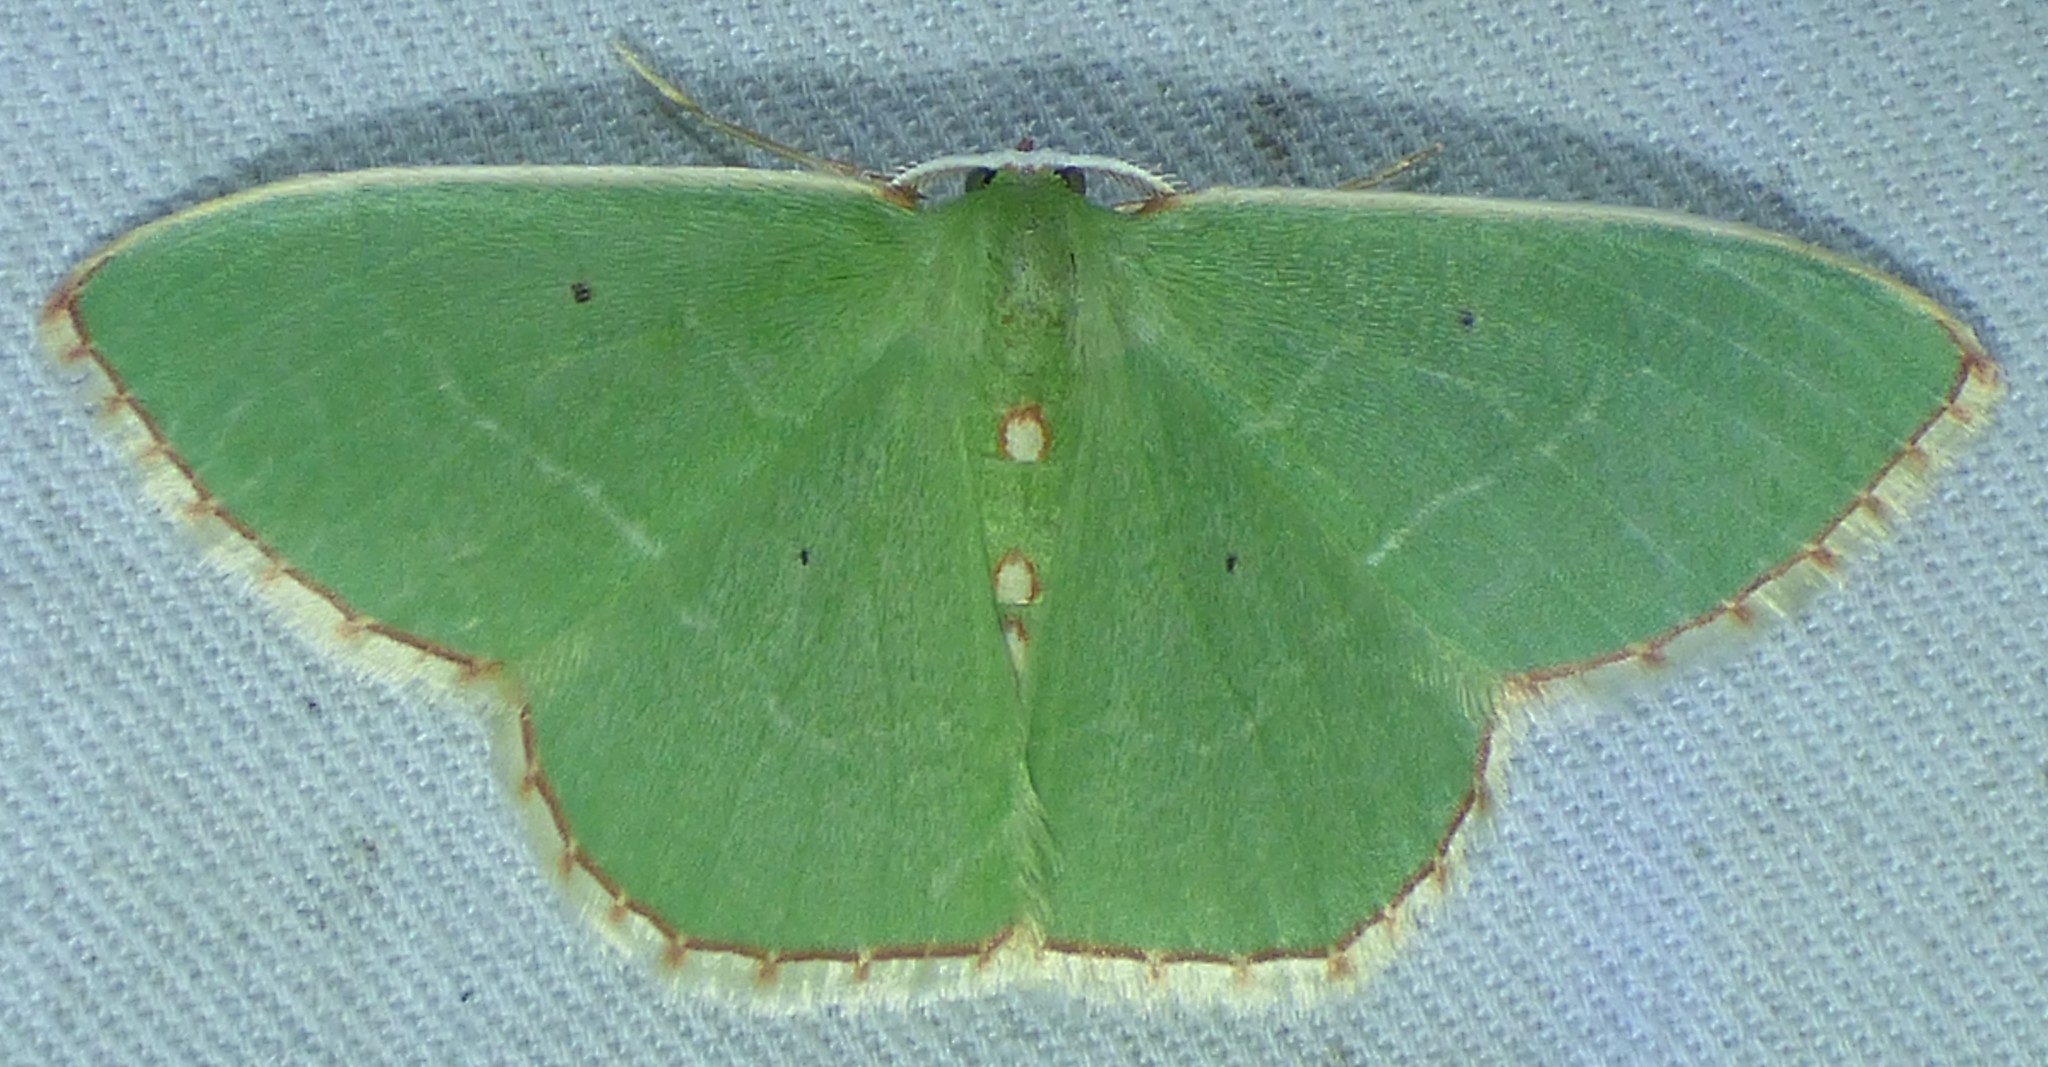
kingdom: Animalia
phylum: Arthropoda
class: Insecta
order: Lepidoptera
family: Geometridae
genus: Nemoria
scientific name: Nemoria lixaria
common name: Red-bordered emerald
